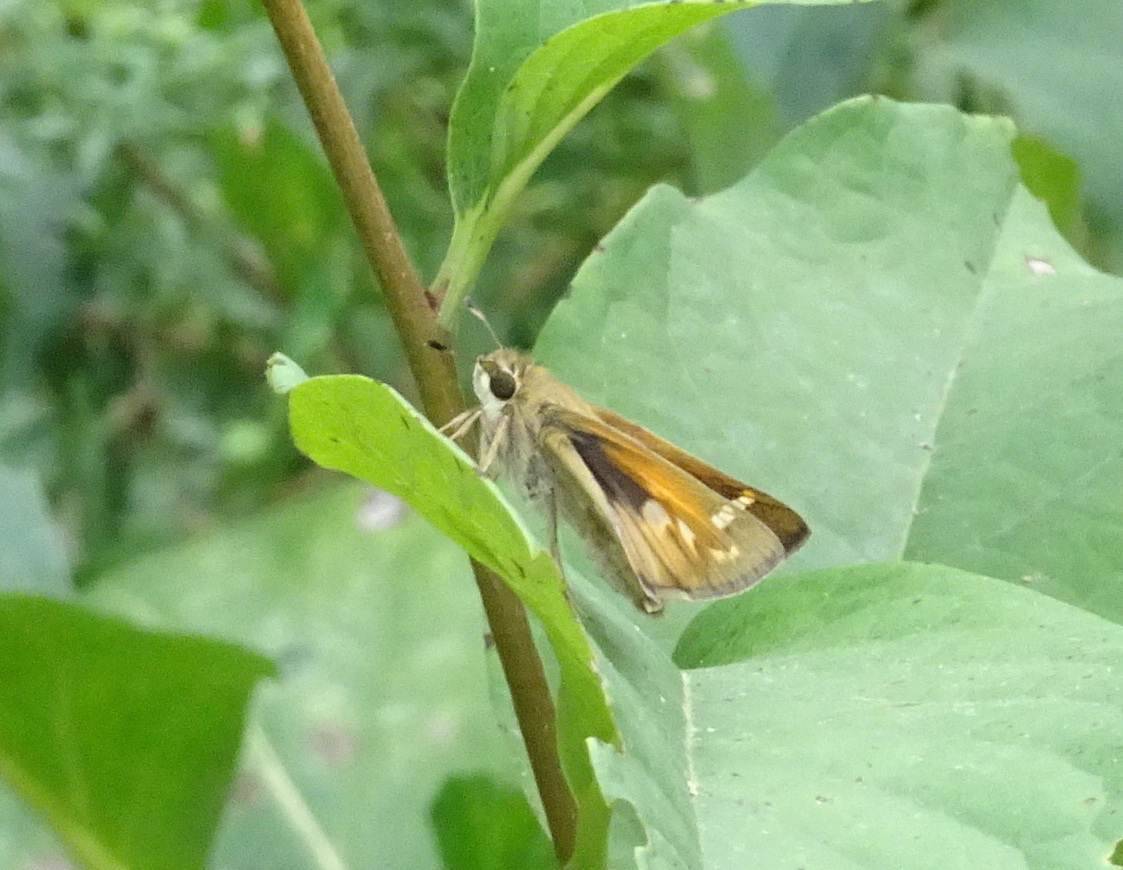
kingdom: Animalia
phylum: Arthropoda
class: Insecta
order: Lepidoptera
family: Hesperiidae
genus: Atalopedes
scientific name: Atalopedes
